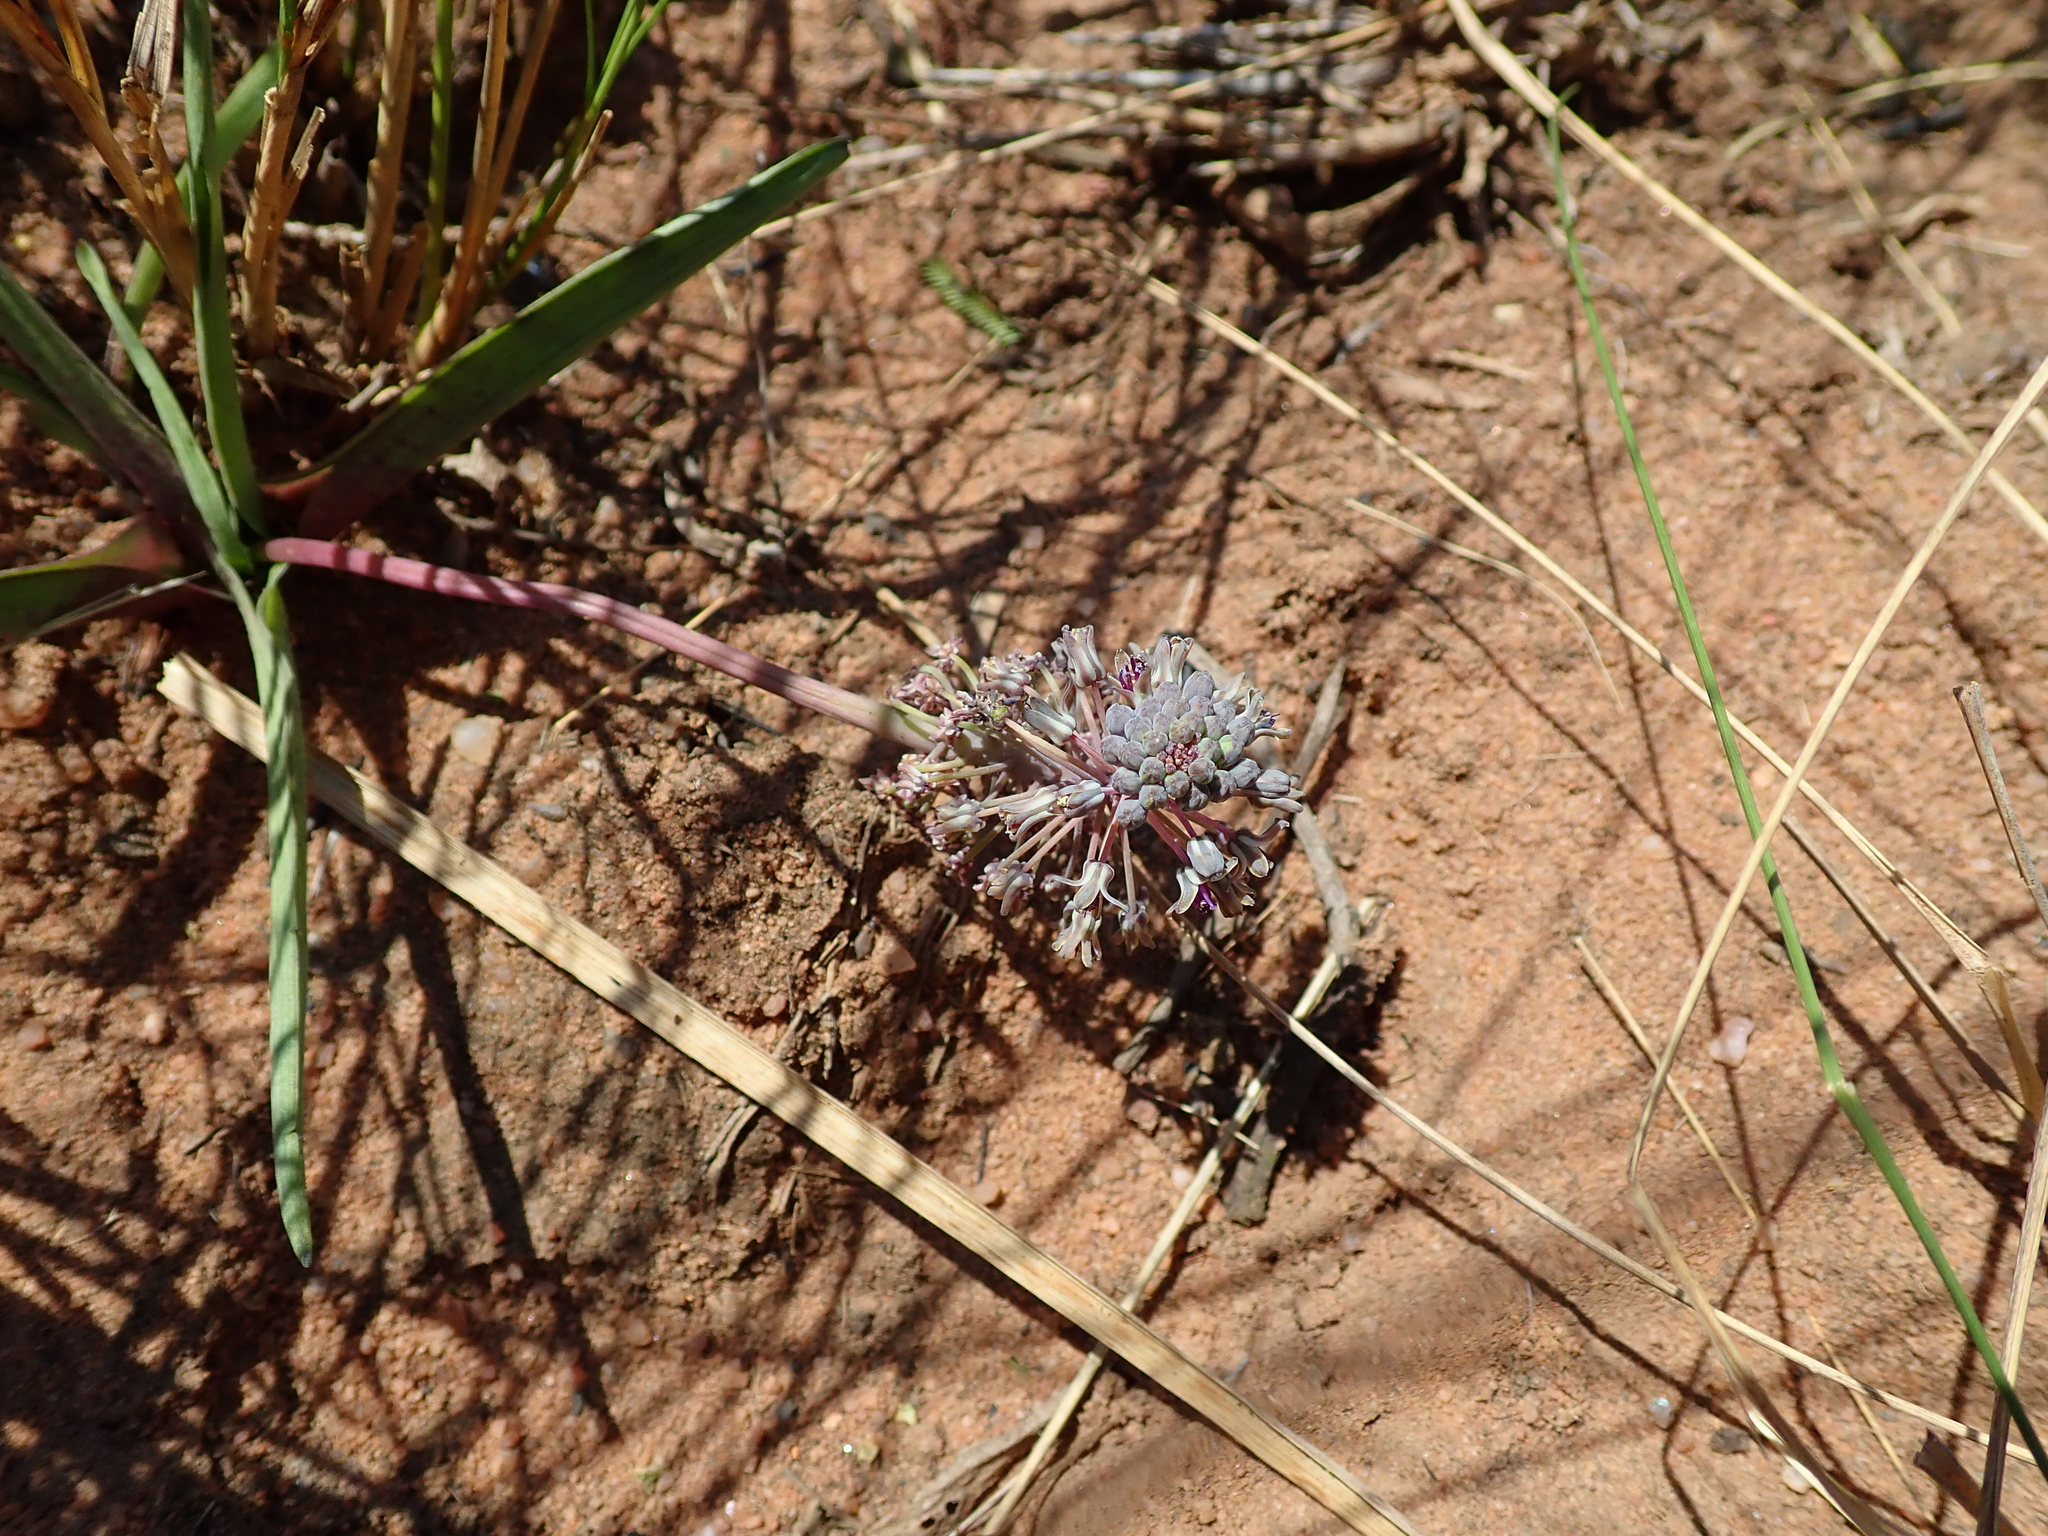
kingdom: Plantae
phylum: Tracheophyta
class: Liliopsida
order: Asparagales
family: Asparagaceae
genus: Ledebouria
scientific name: Ledebouria cooperi
